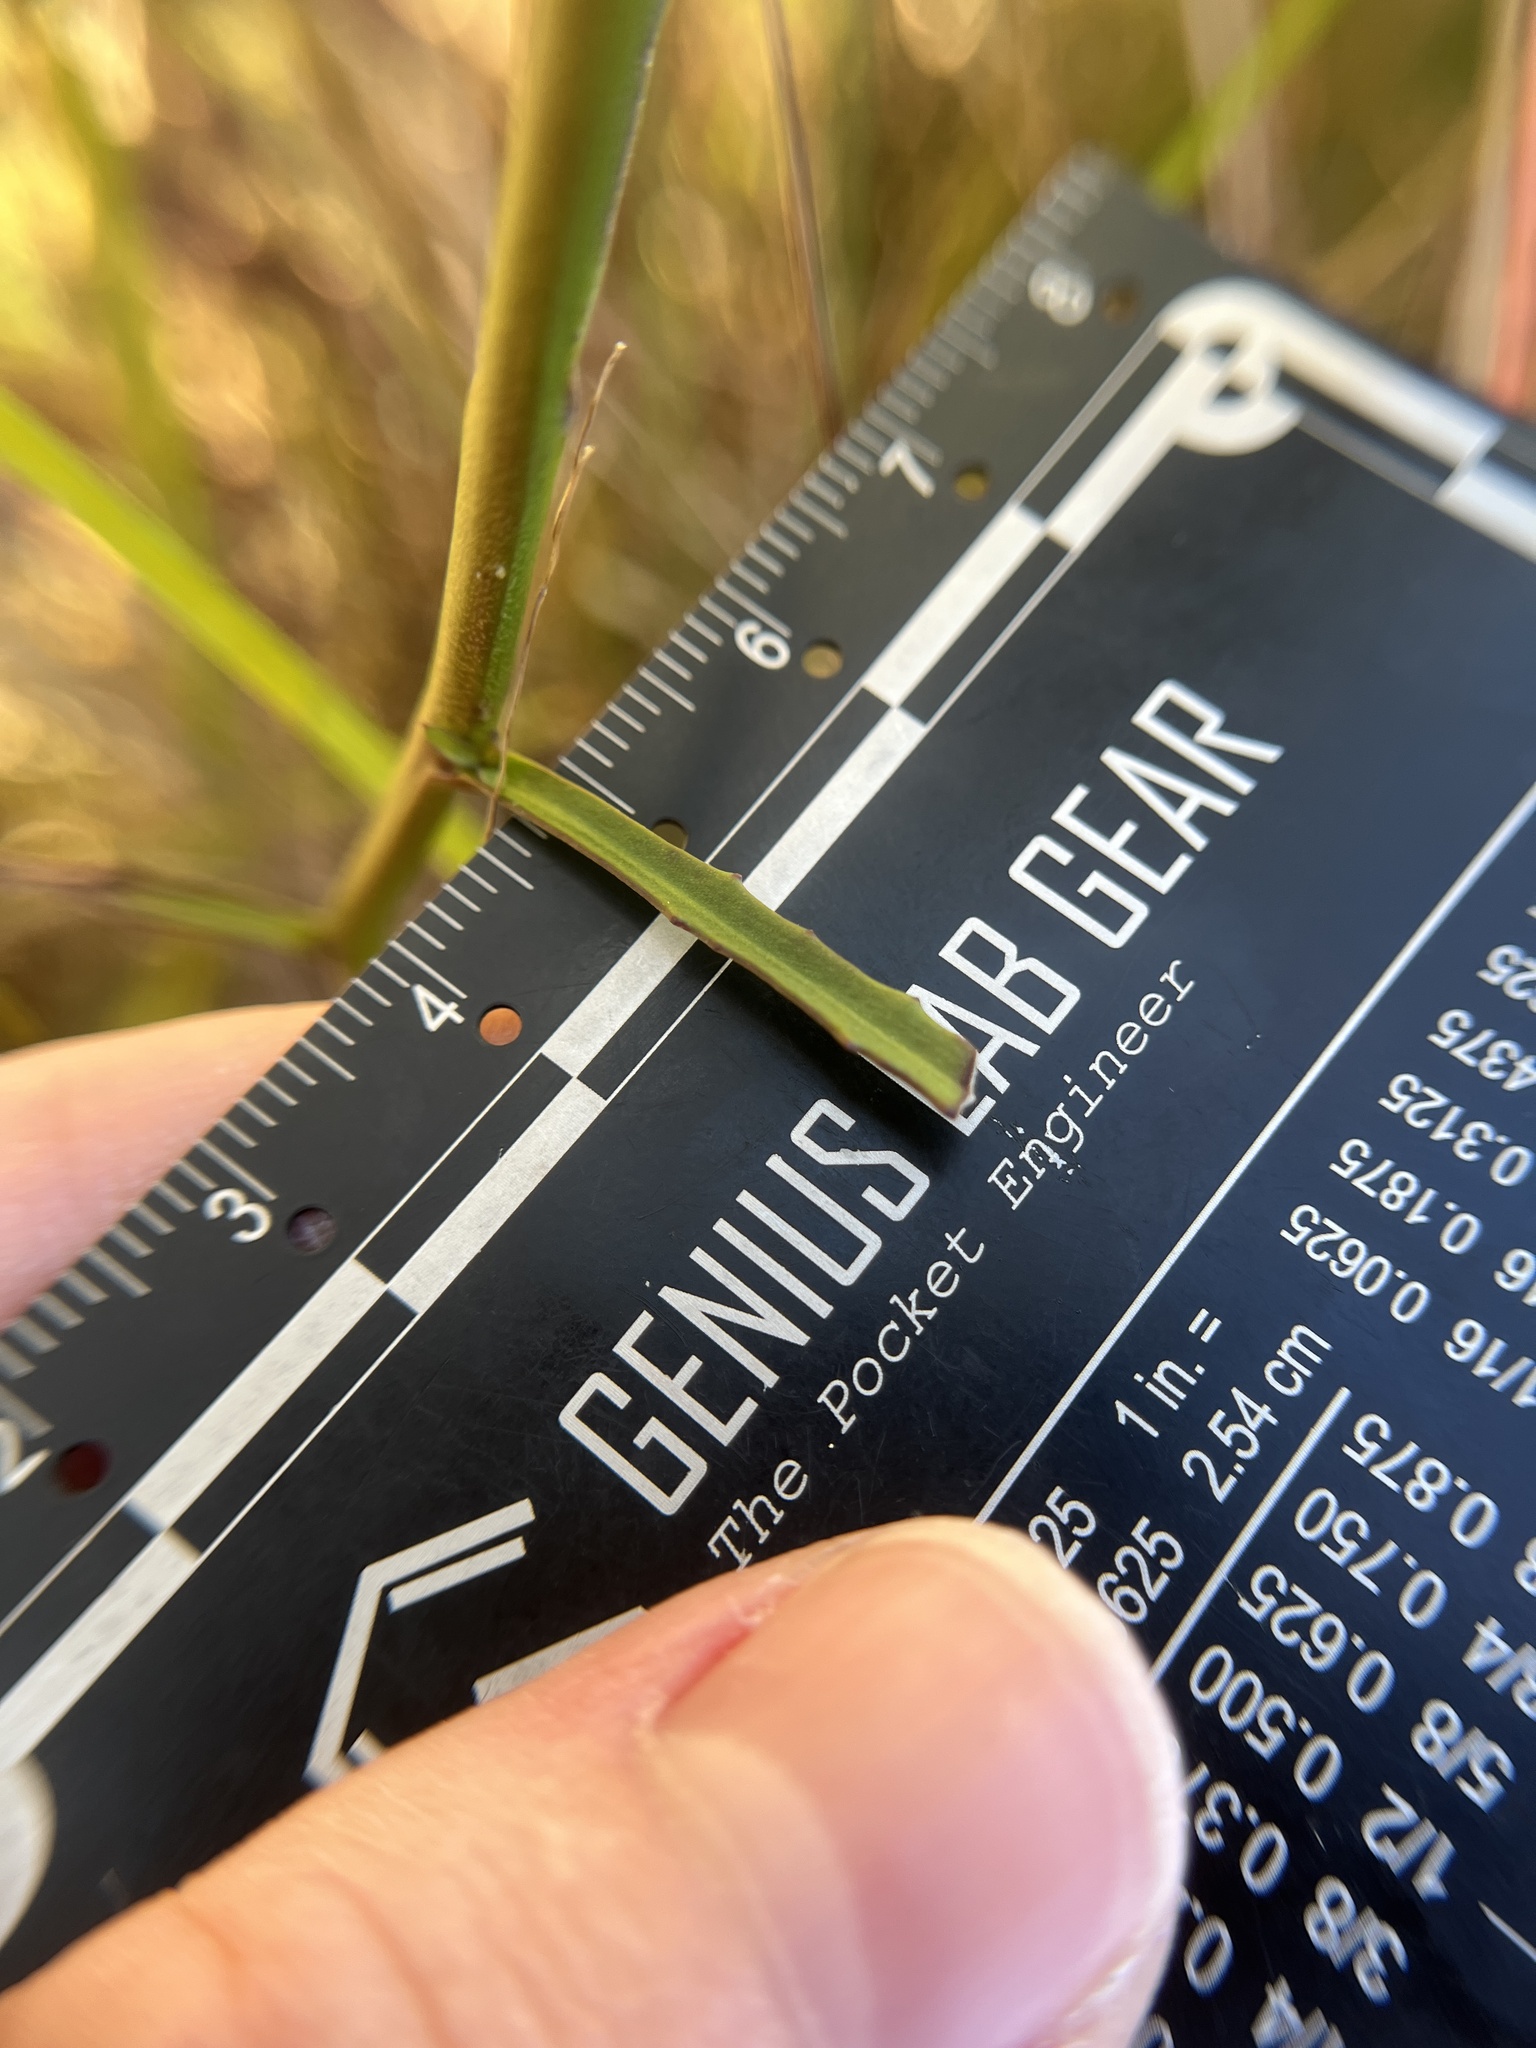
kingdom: Plantae
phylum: Tracheophyta
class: Magnoliopsida
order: Asterales
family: Campanulaceae
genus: Lobelia
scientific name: Lobelia batsonii
